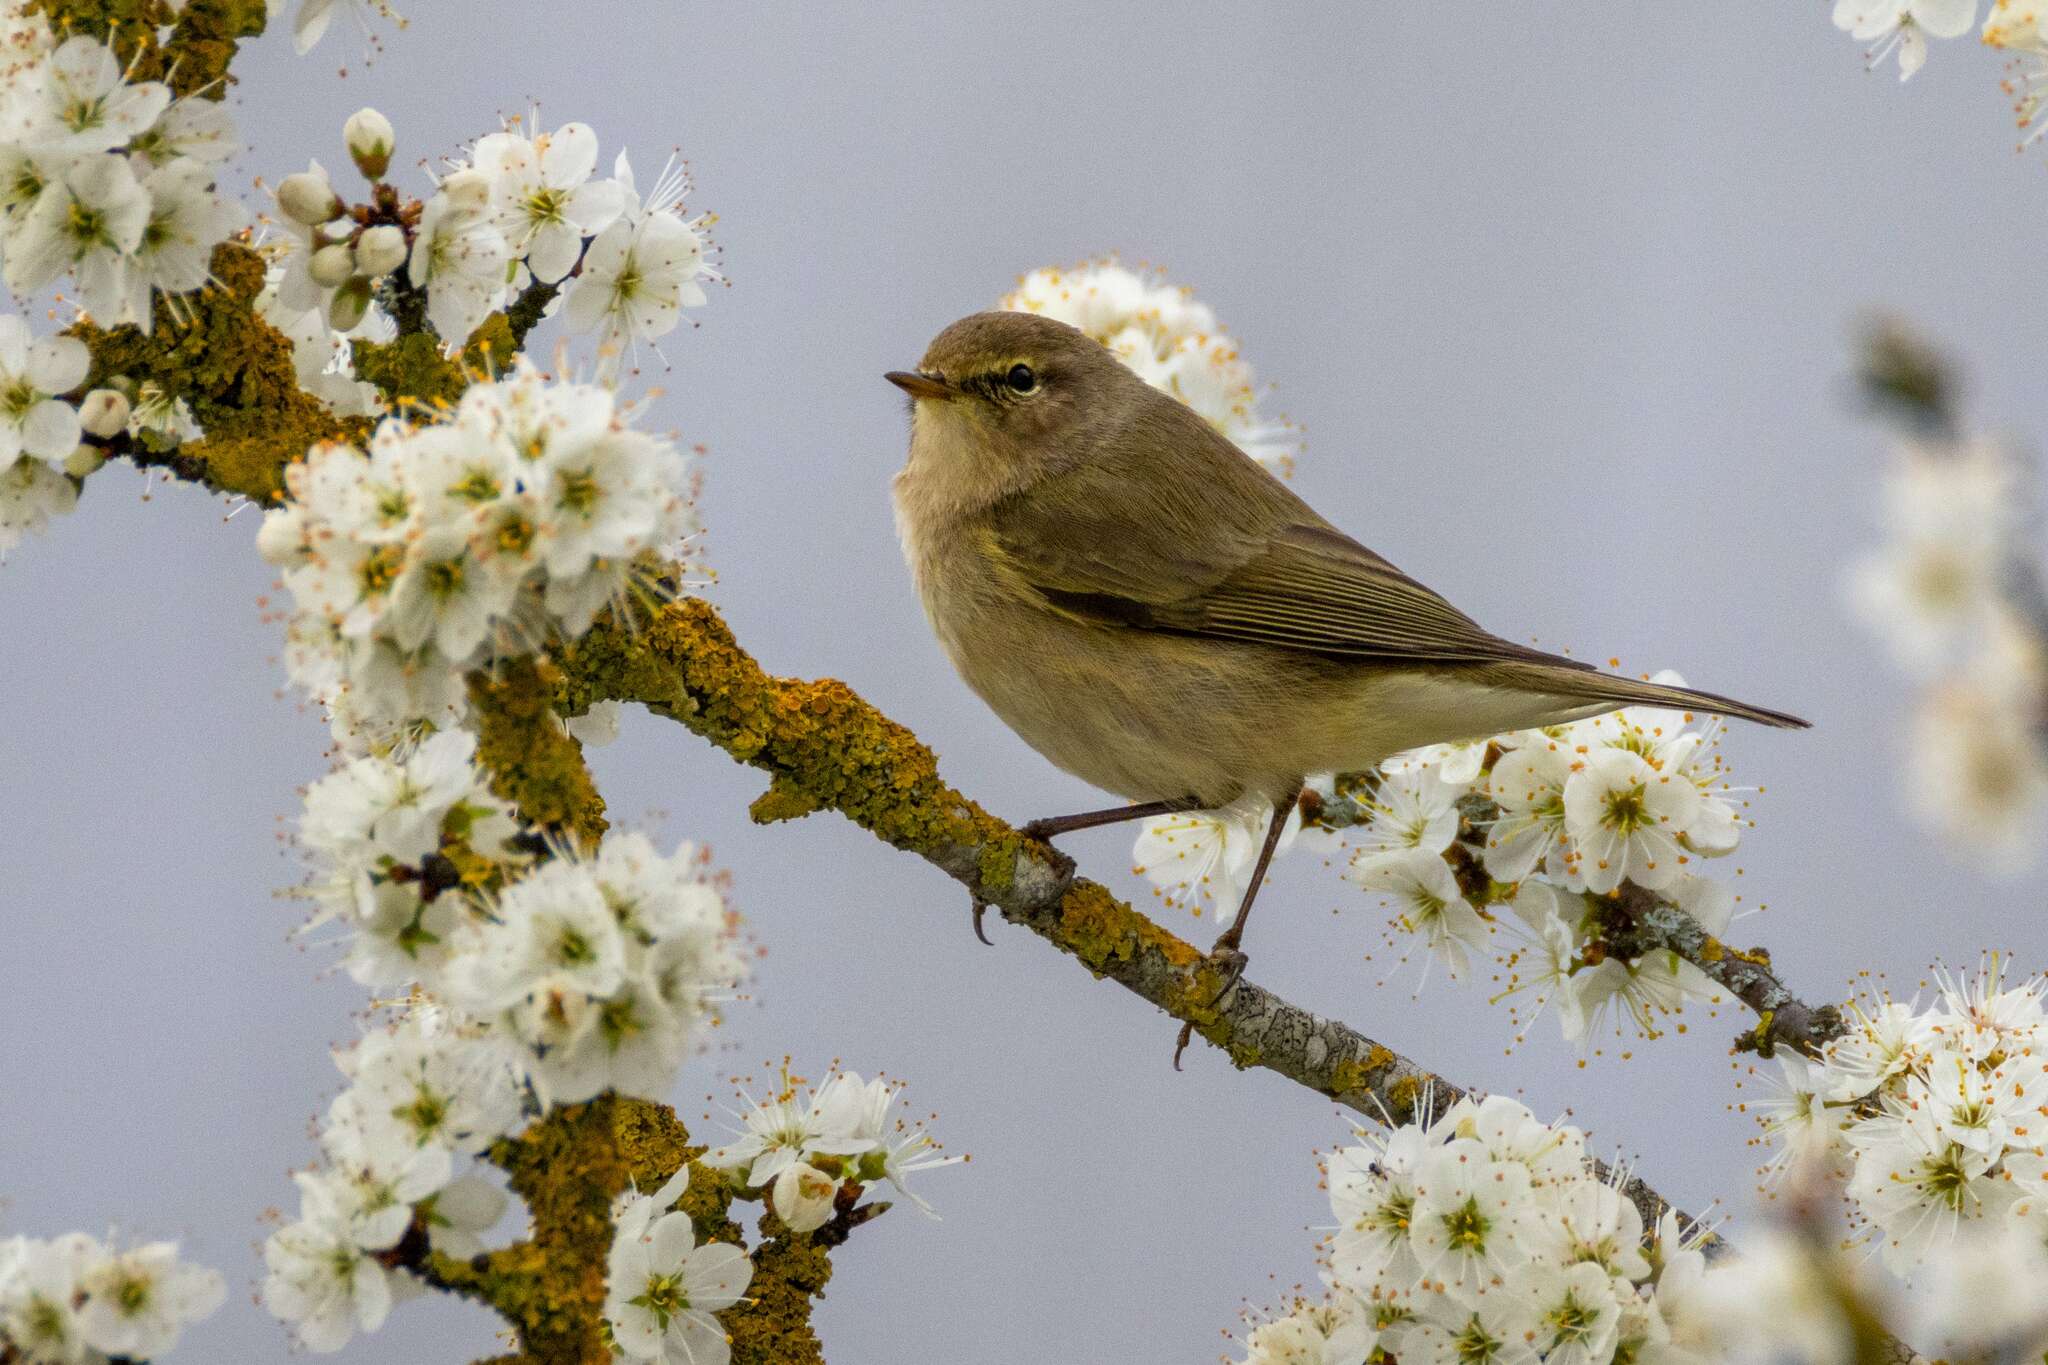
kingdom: Animalia
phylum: Chordata
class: Aves
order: Passeriformes
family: Phylloscopidae
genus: Phylloscopus
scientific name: Phylloscopus collybita
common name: Common chiffchaff
